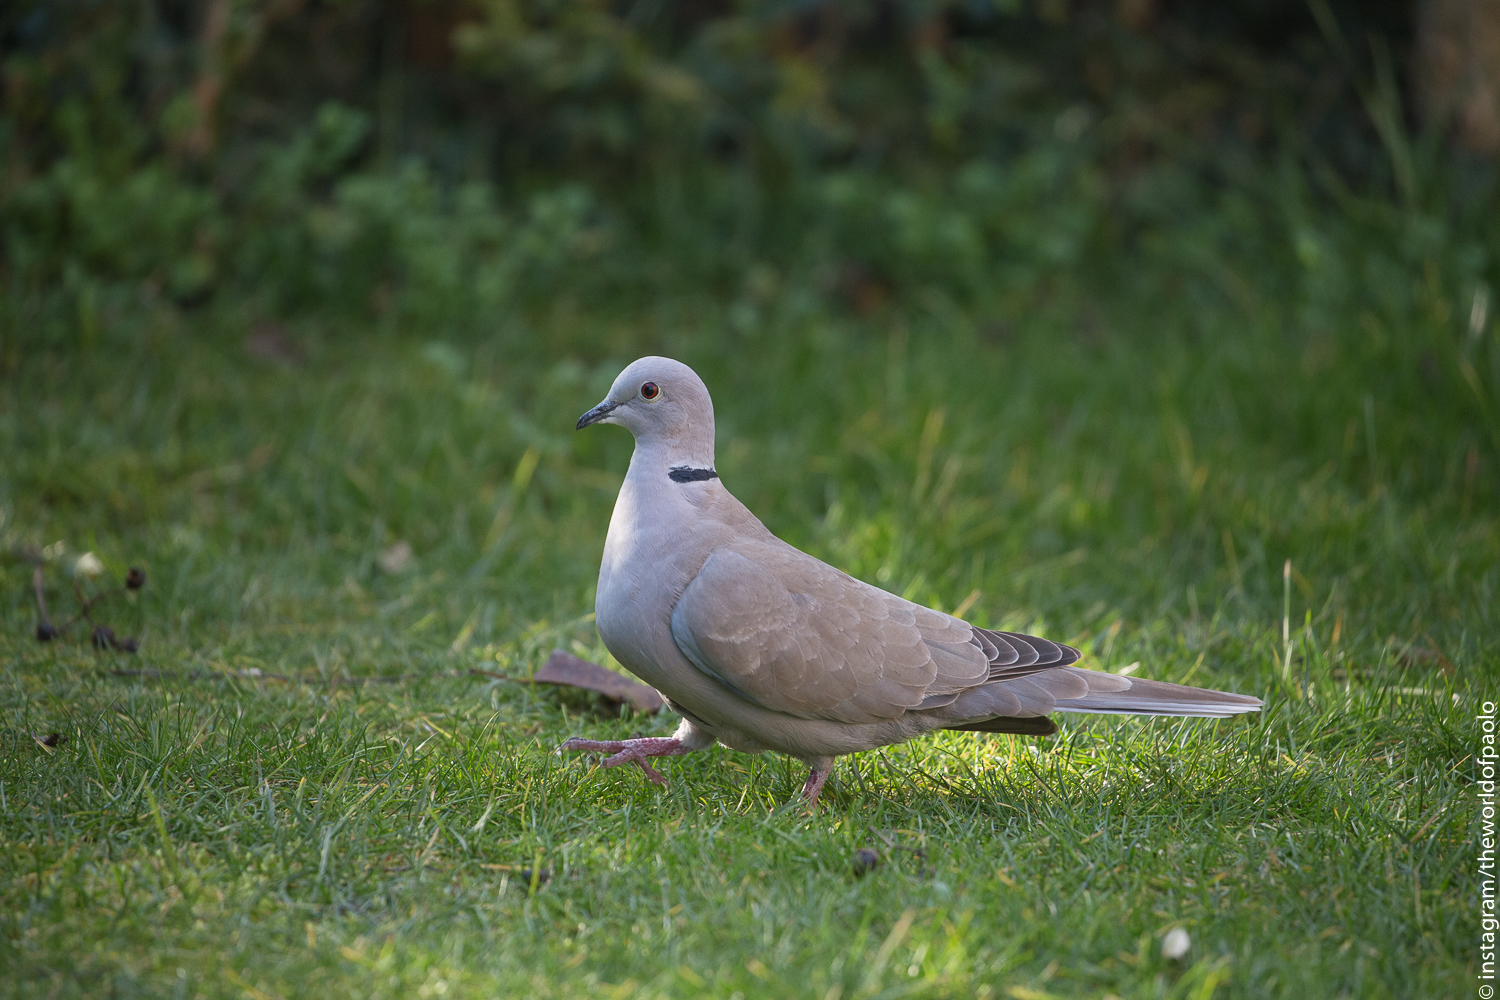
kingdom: Animalia
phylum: Chordata
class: Aves
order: Columbiformes
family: Columbidae
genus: Streptopelia
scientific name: Streptopelia decaocto
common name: Eurasian collared dove
